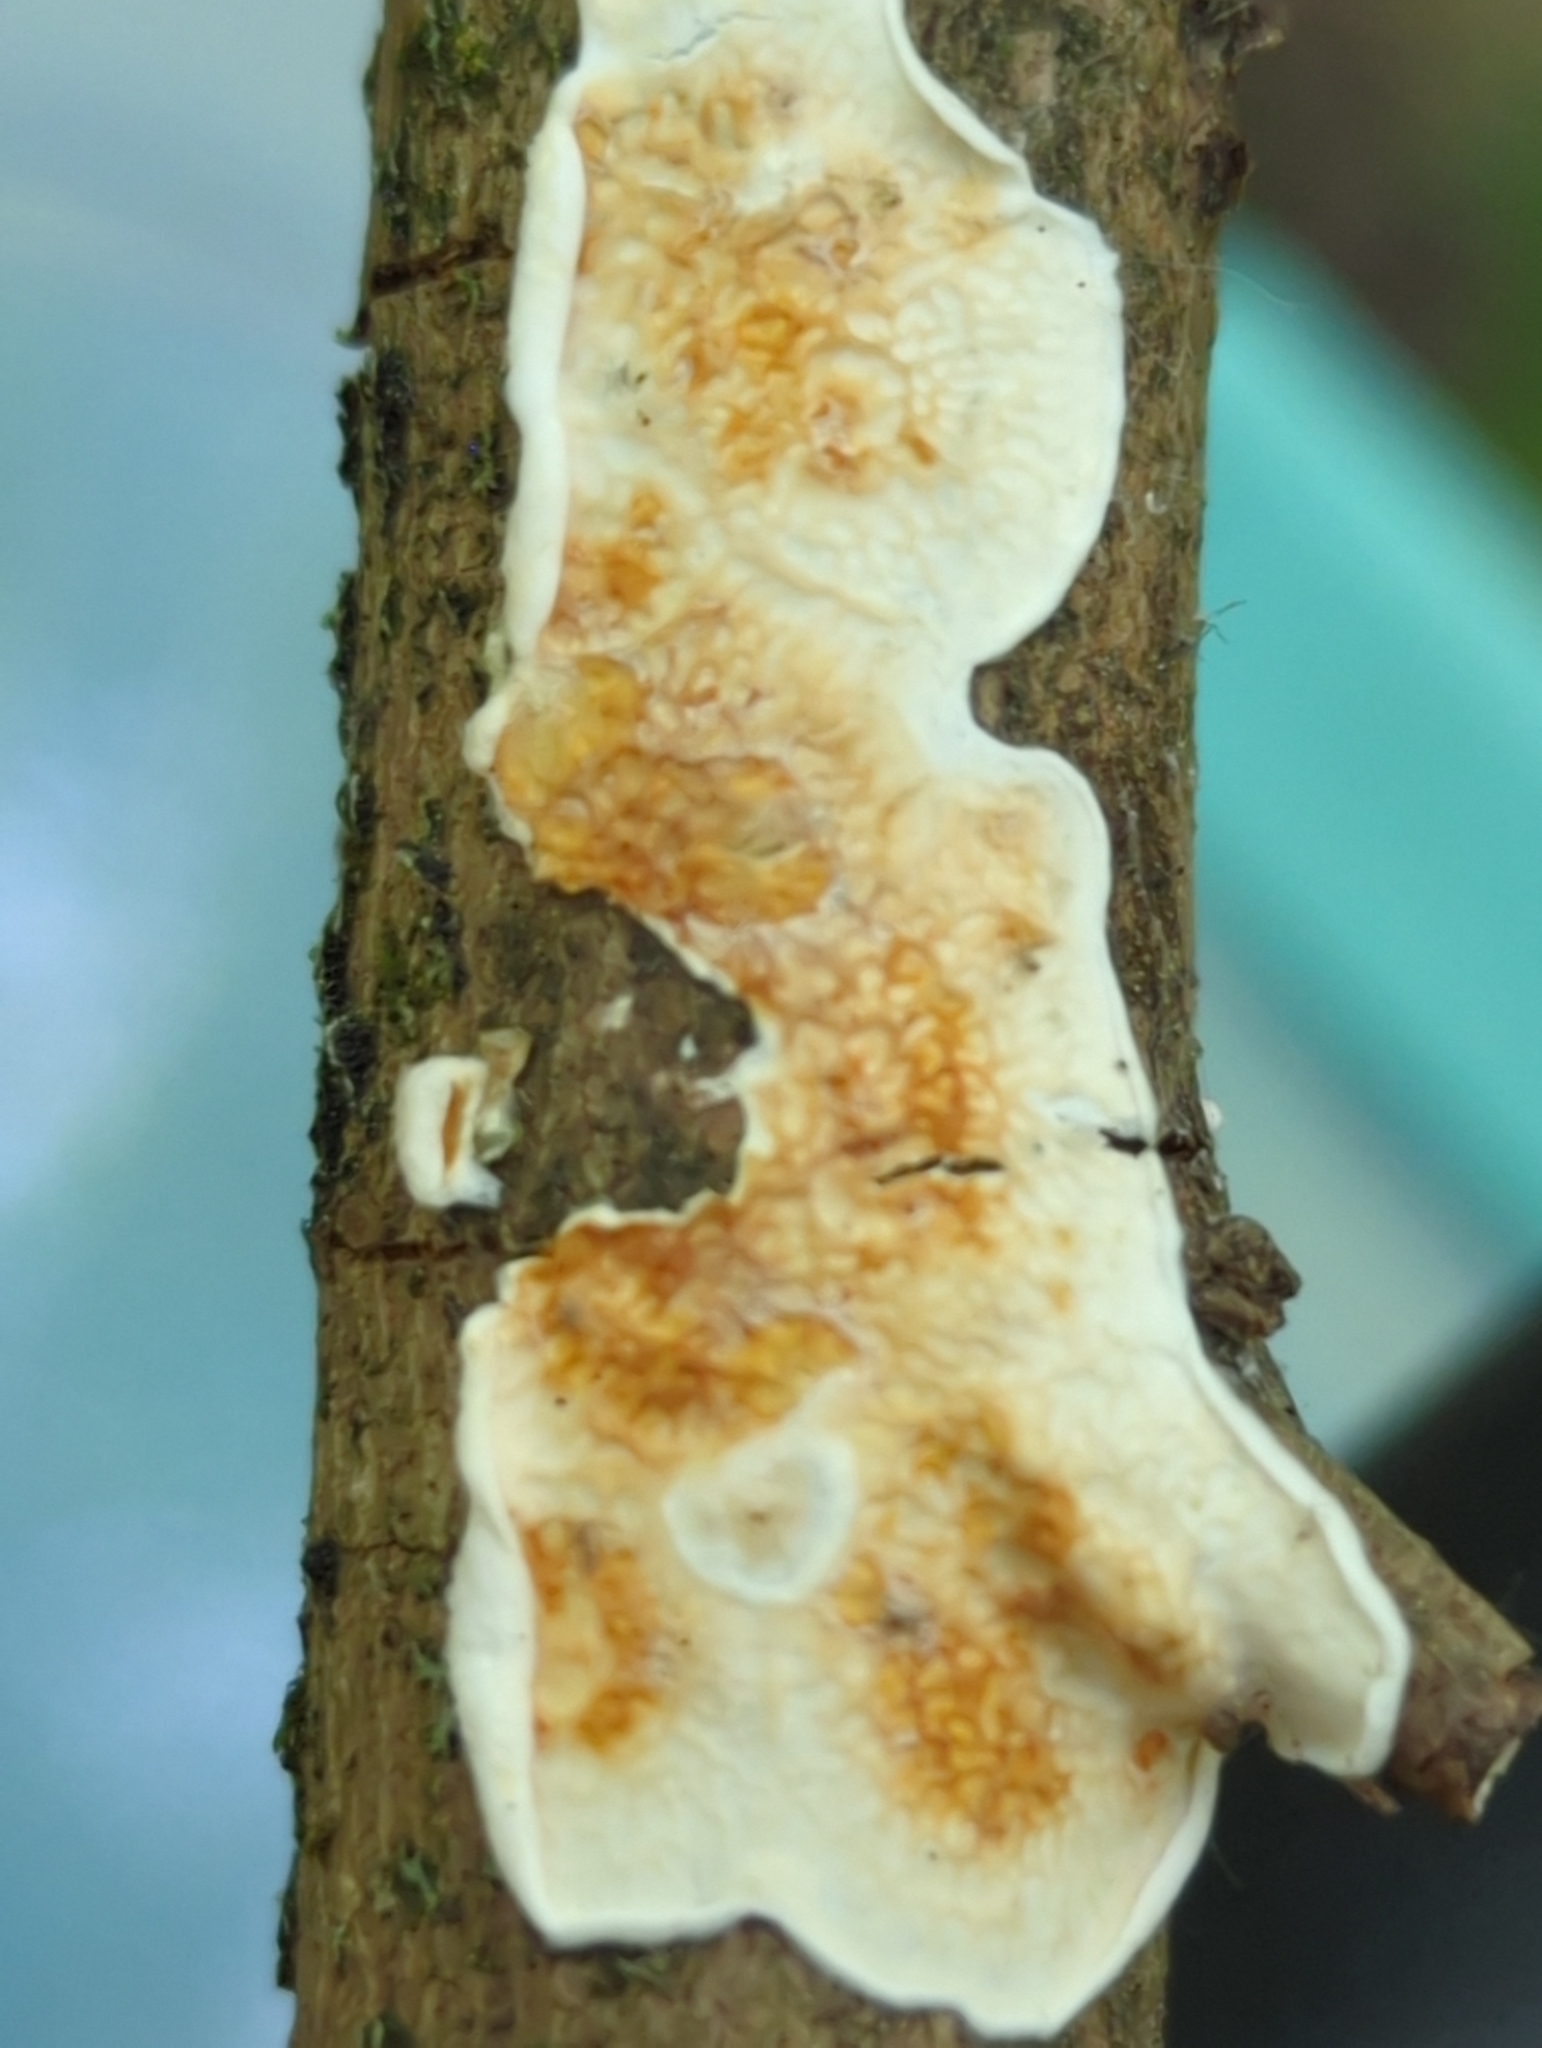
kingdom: Fungi
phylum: Basidiomycota
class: Agaricomycetes
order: Agaricales
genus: Plicatura
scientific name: Plicatura nivea
